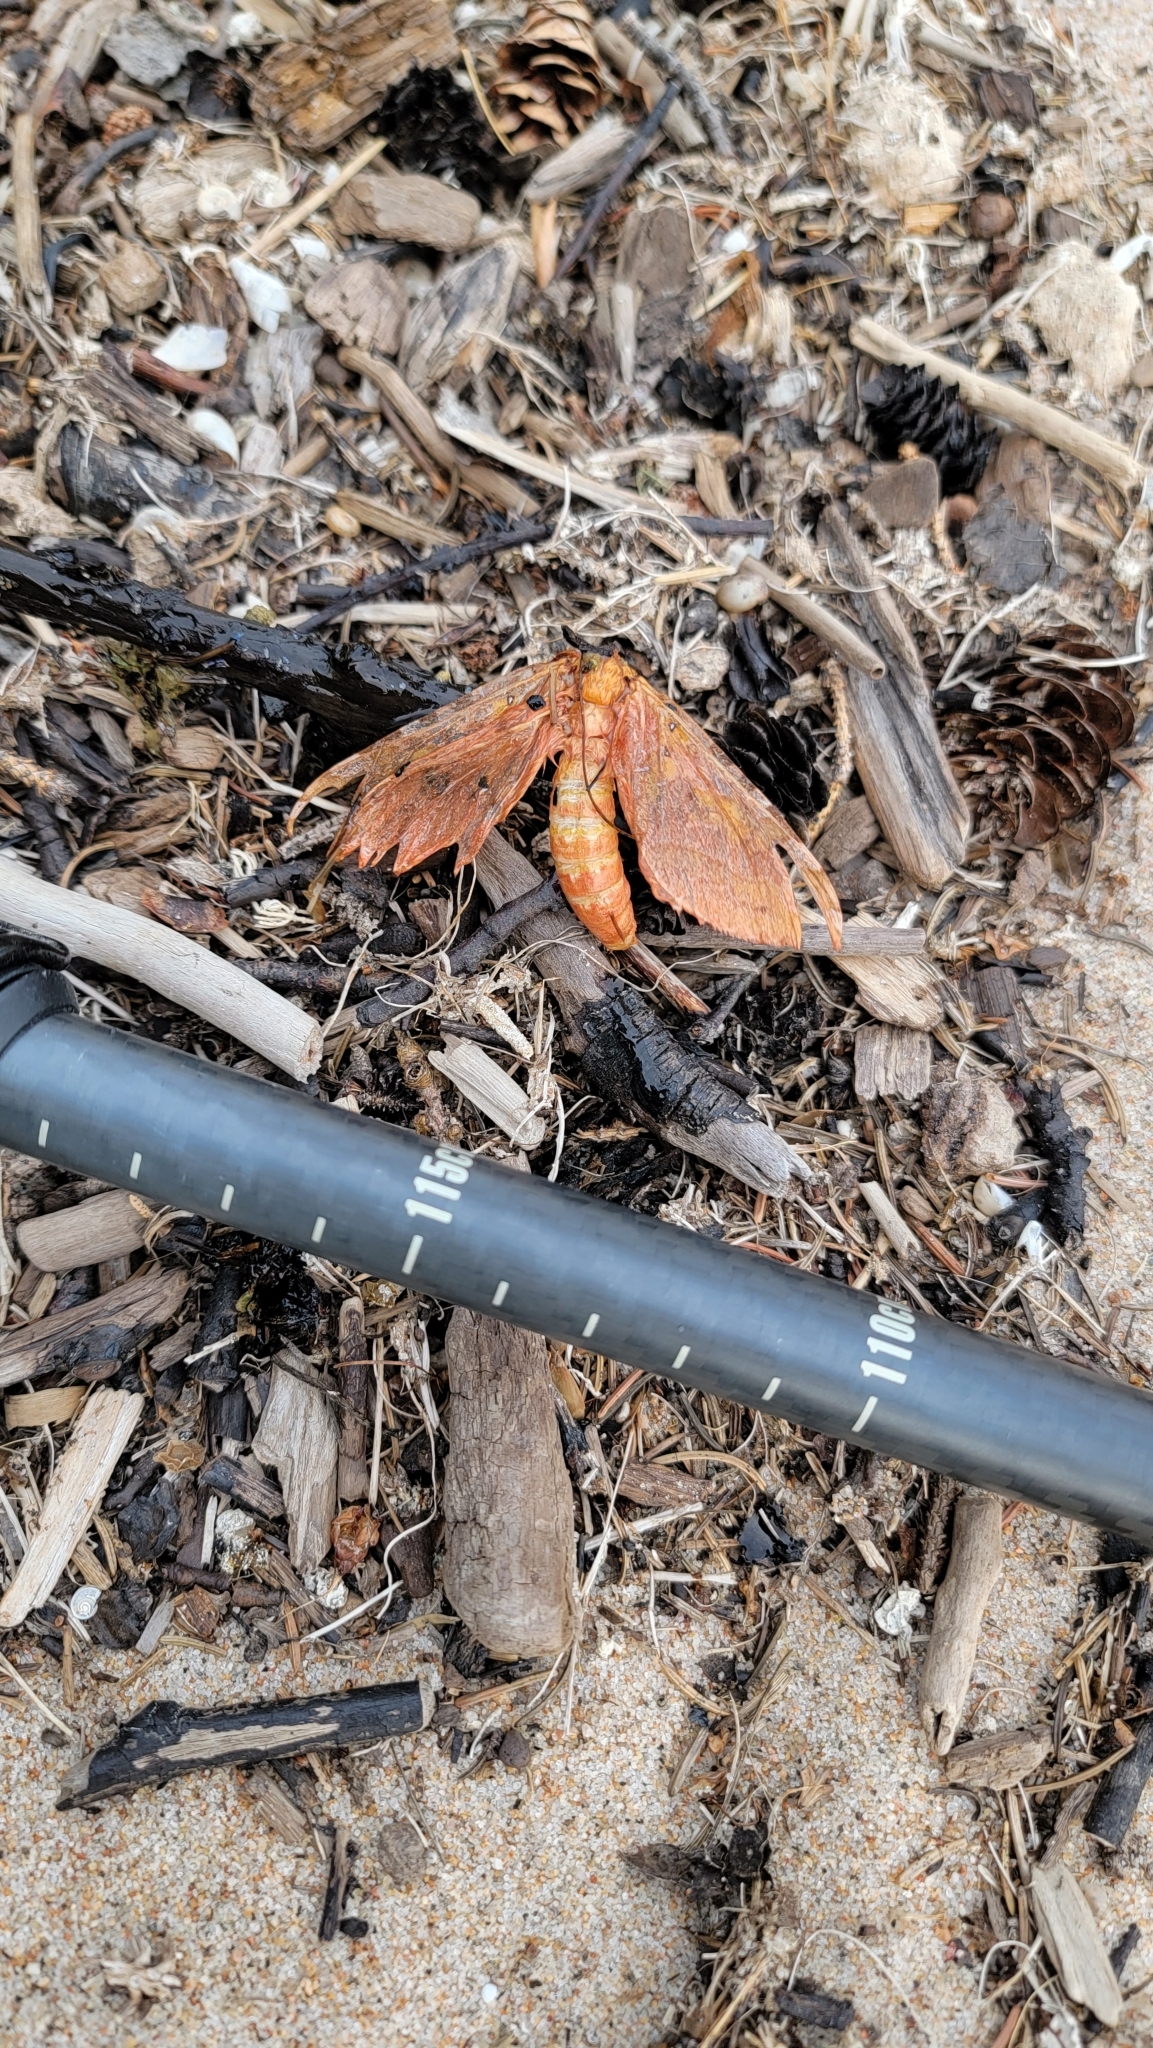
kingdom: Animalia
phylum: Arthropoda
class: Insecta
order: Lepidoptera
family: Hepialidae
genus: Sthenopis
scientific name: Sthenopis purpurascens
